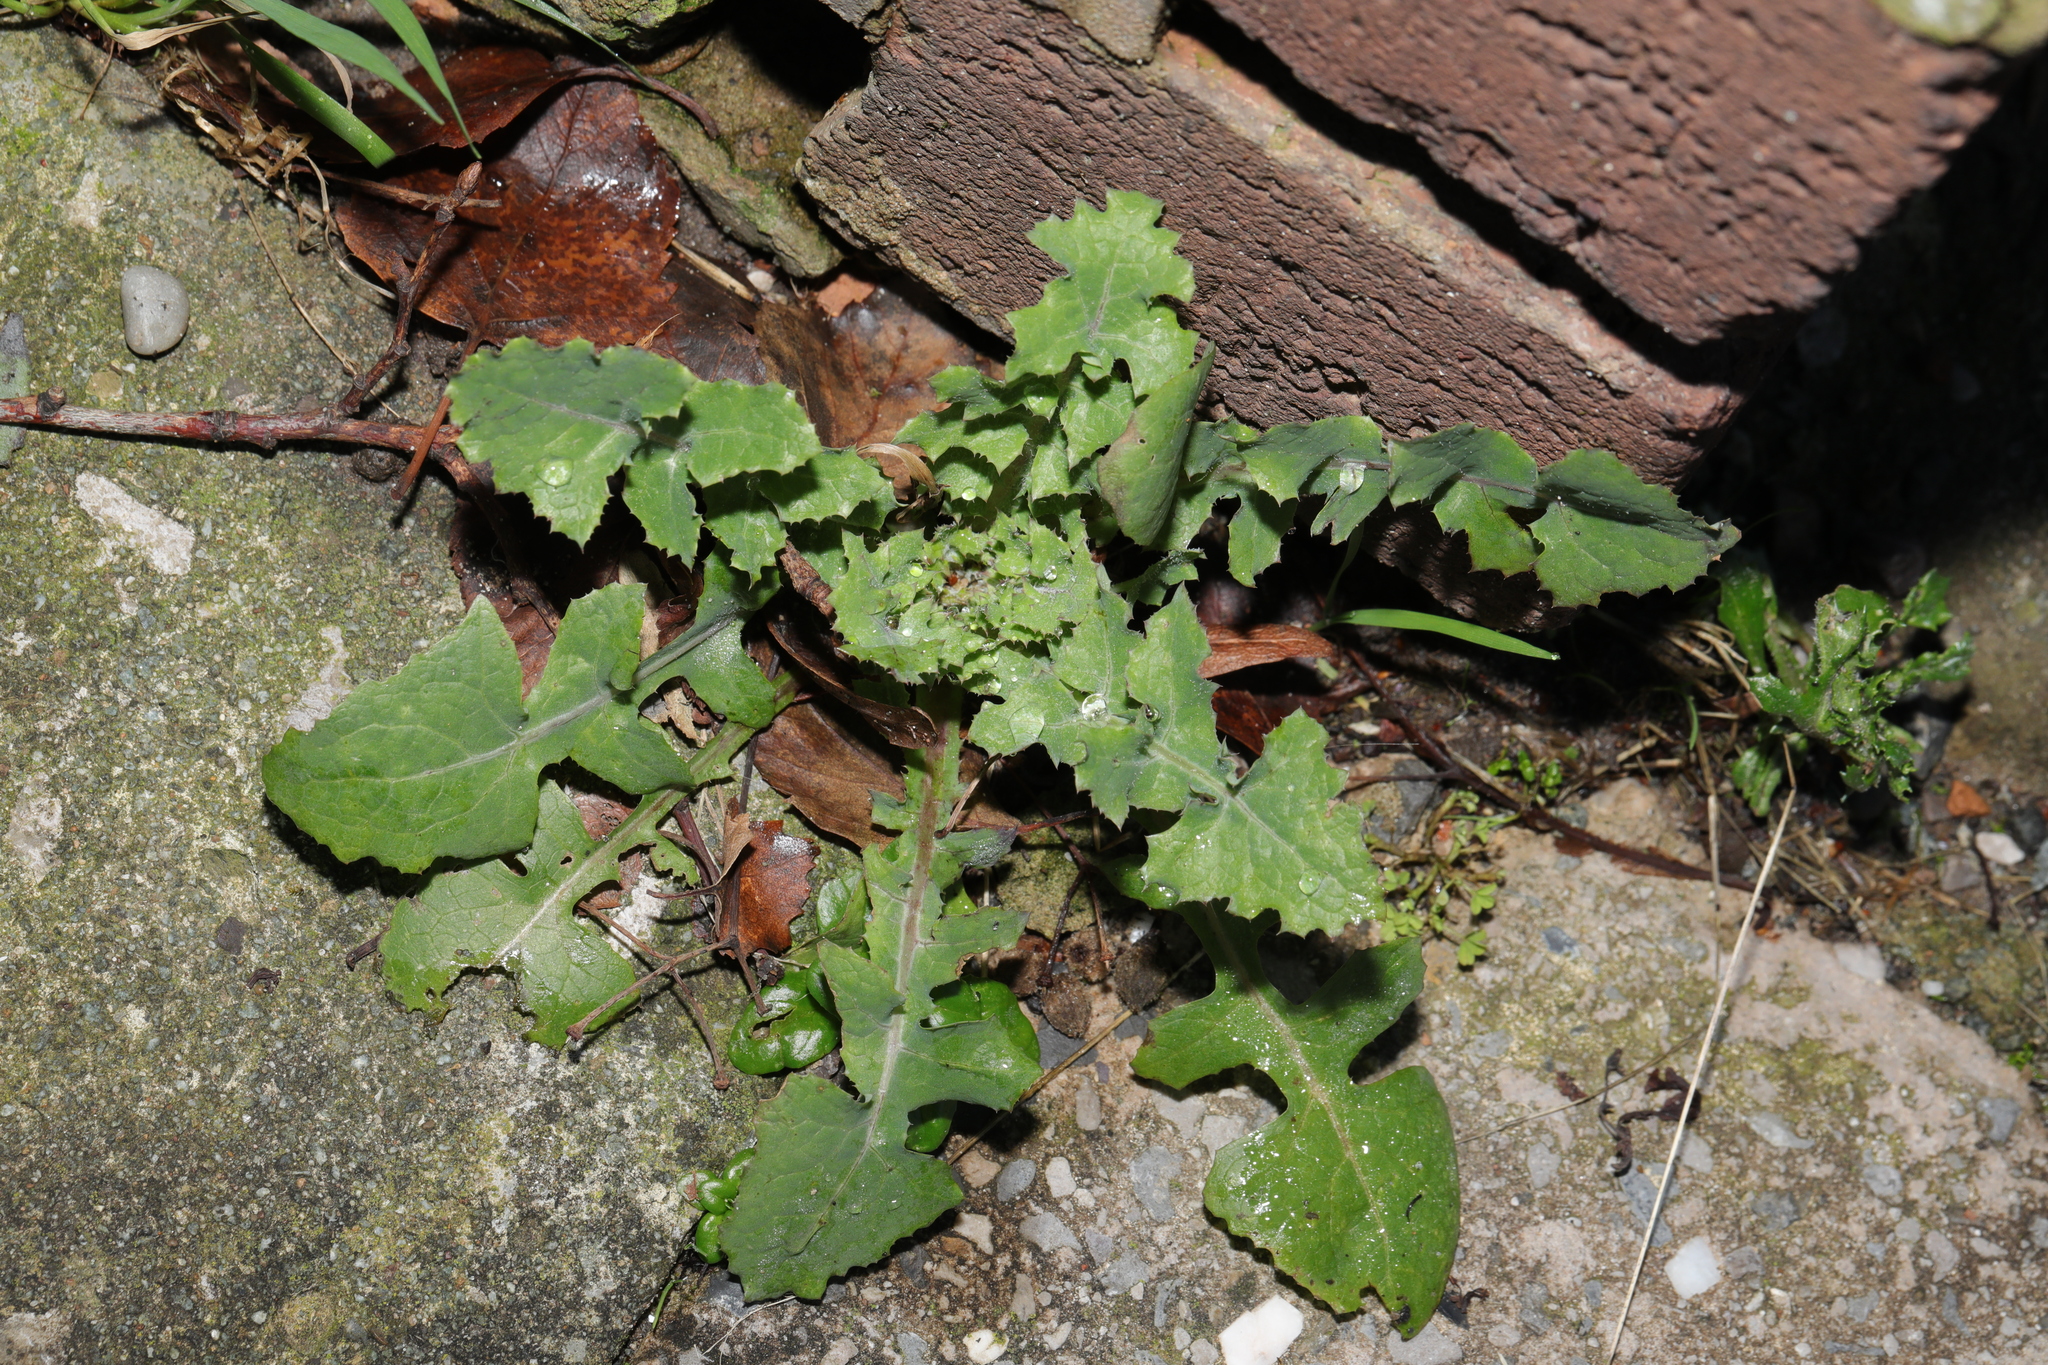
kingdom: Plantae
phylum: Tracheophyta
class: Magnoliopsida
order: Asterales
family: Asteraceae
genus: Sonchus
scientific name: Sonchus oleraceus
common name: Common sowthistle
